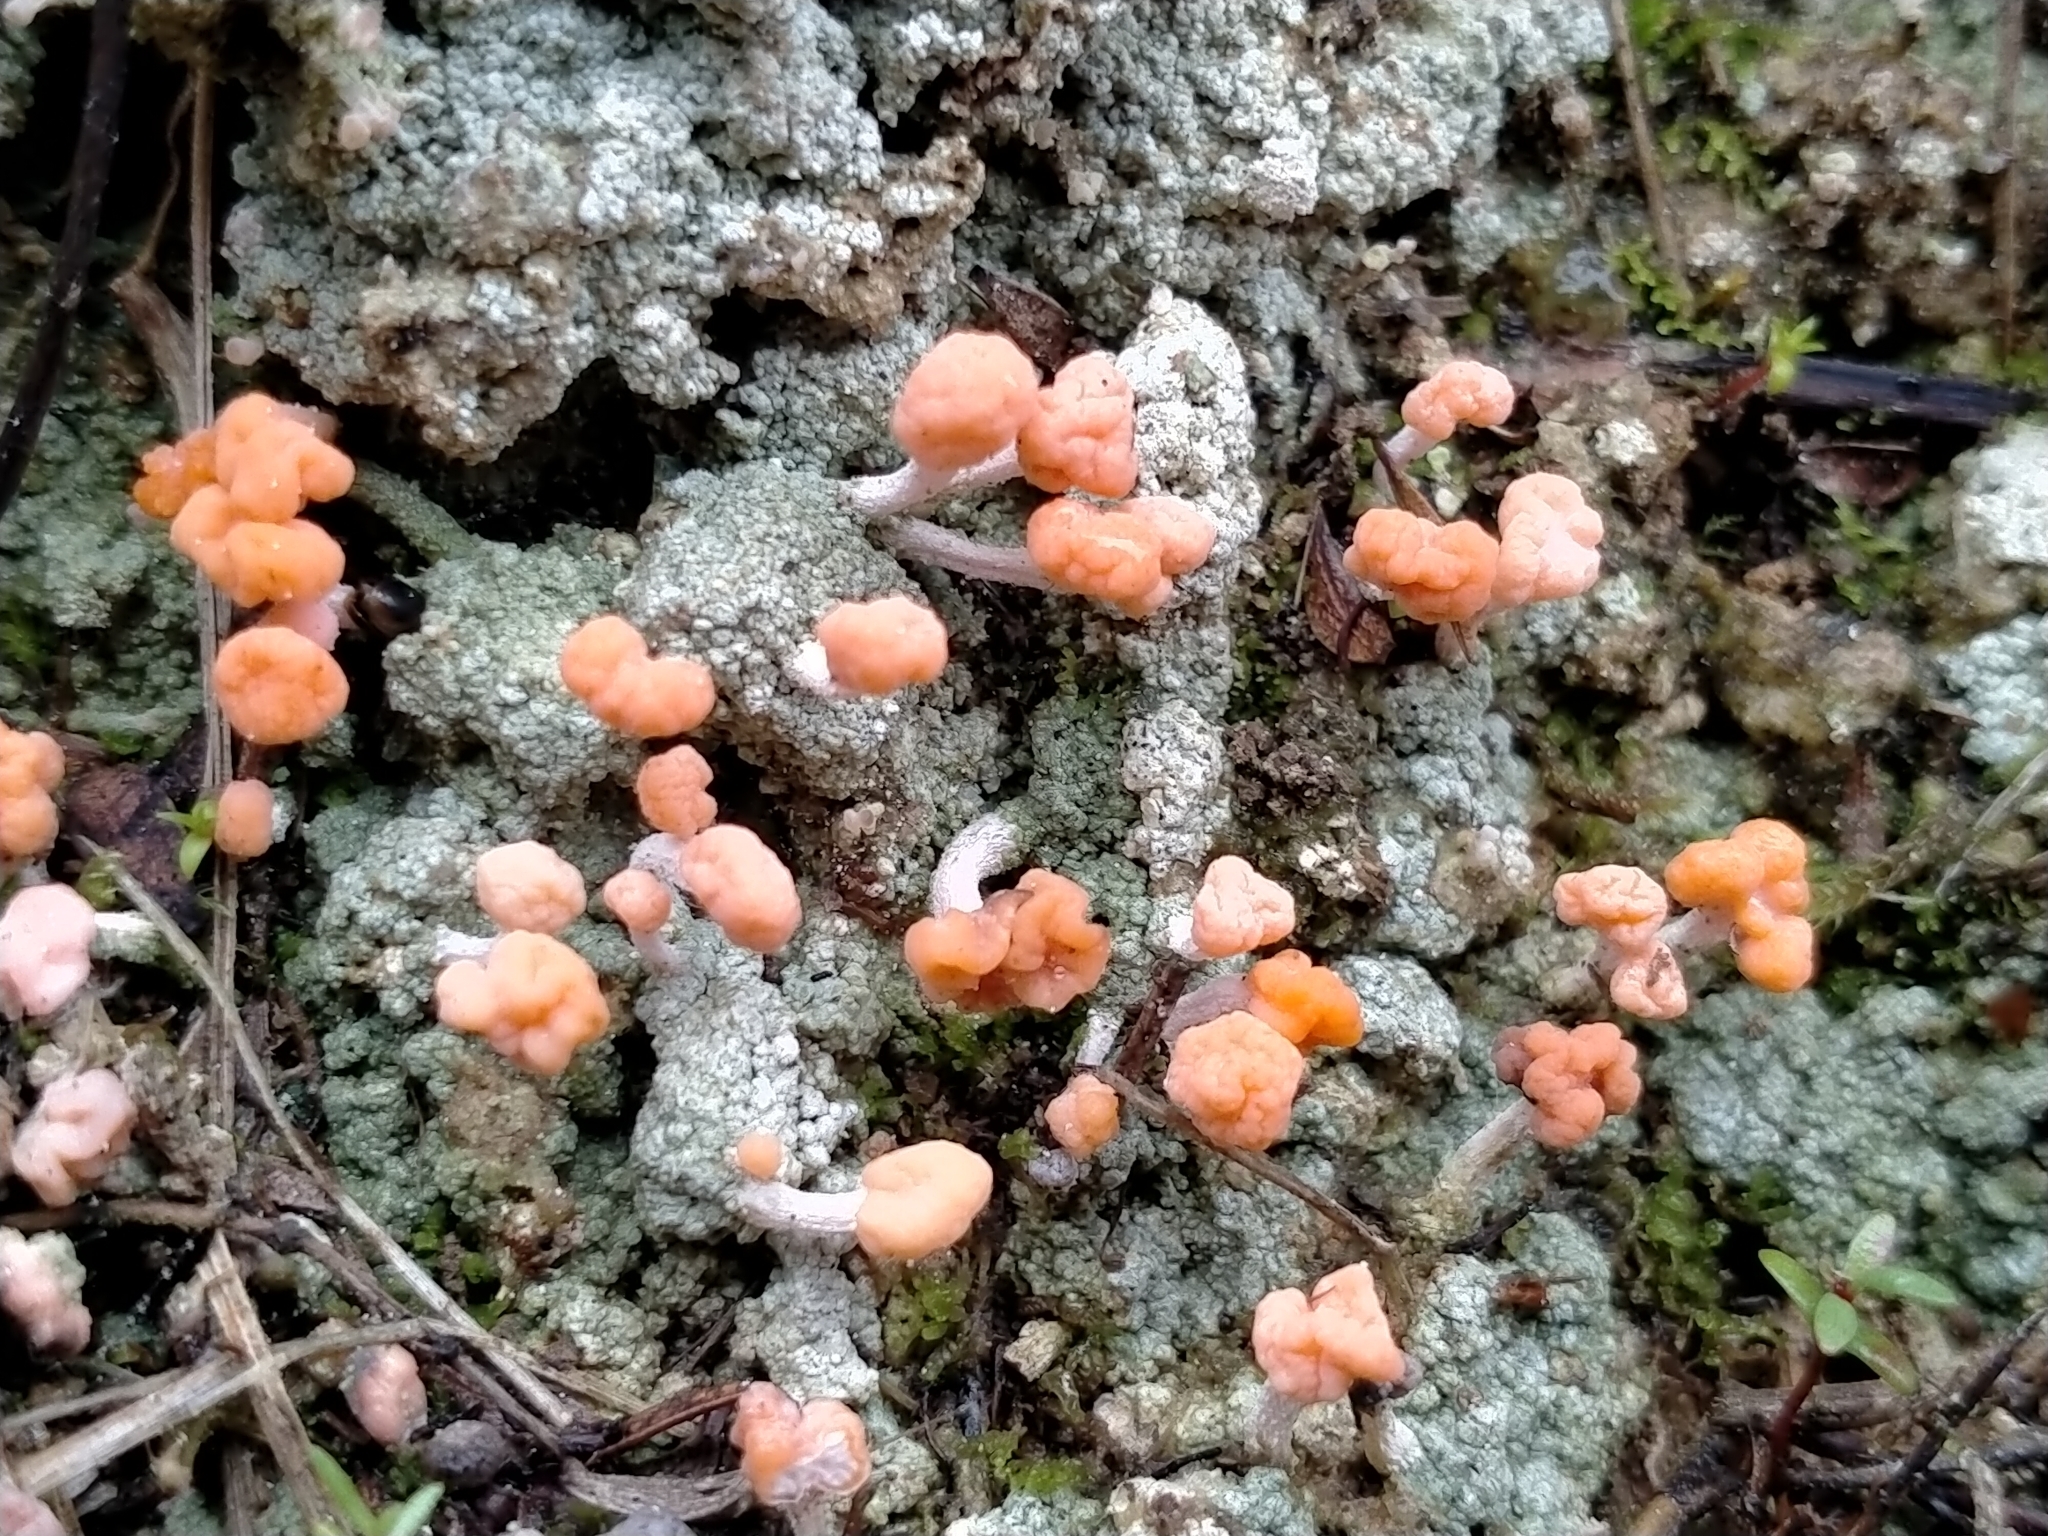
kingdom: Fungi
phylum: Ascomycota
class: Lecanoromycetes
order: Pertusariales
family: Icmadophilaceae
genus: Dibaeis
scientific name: Dibaeis arcuata
